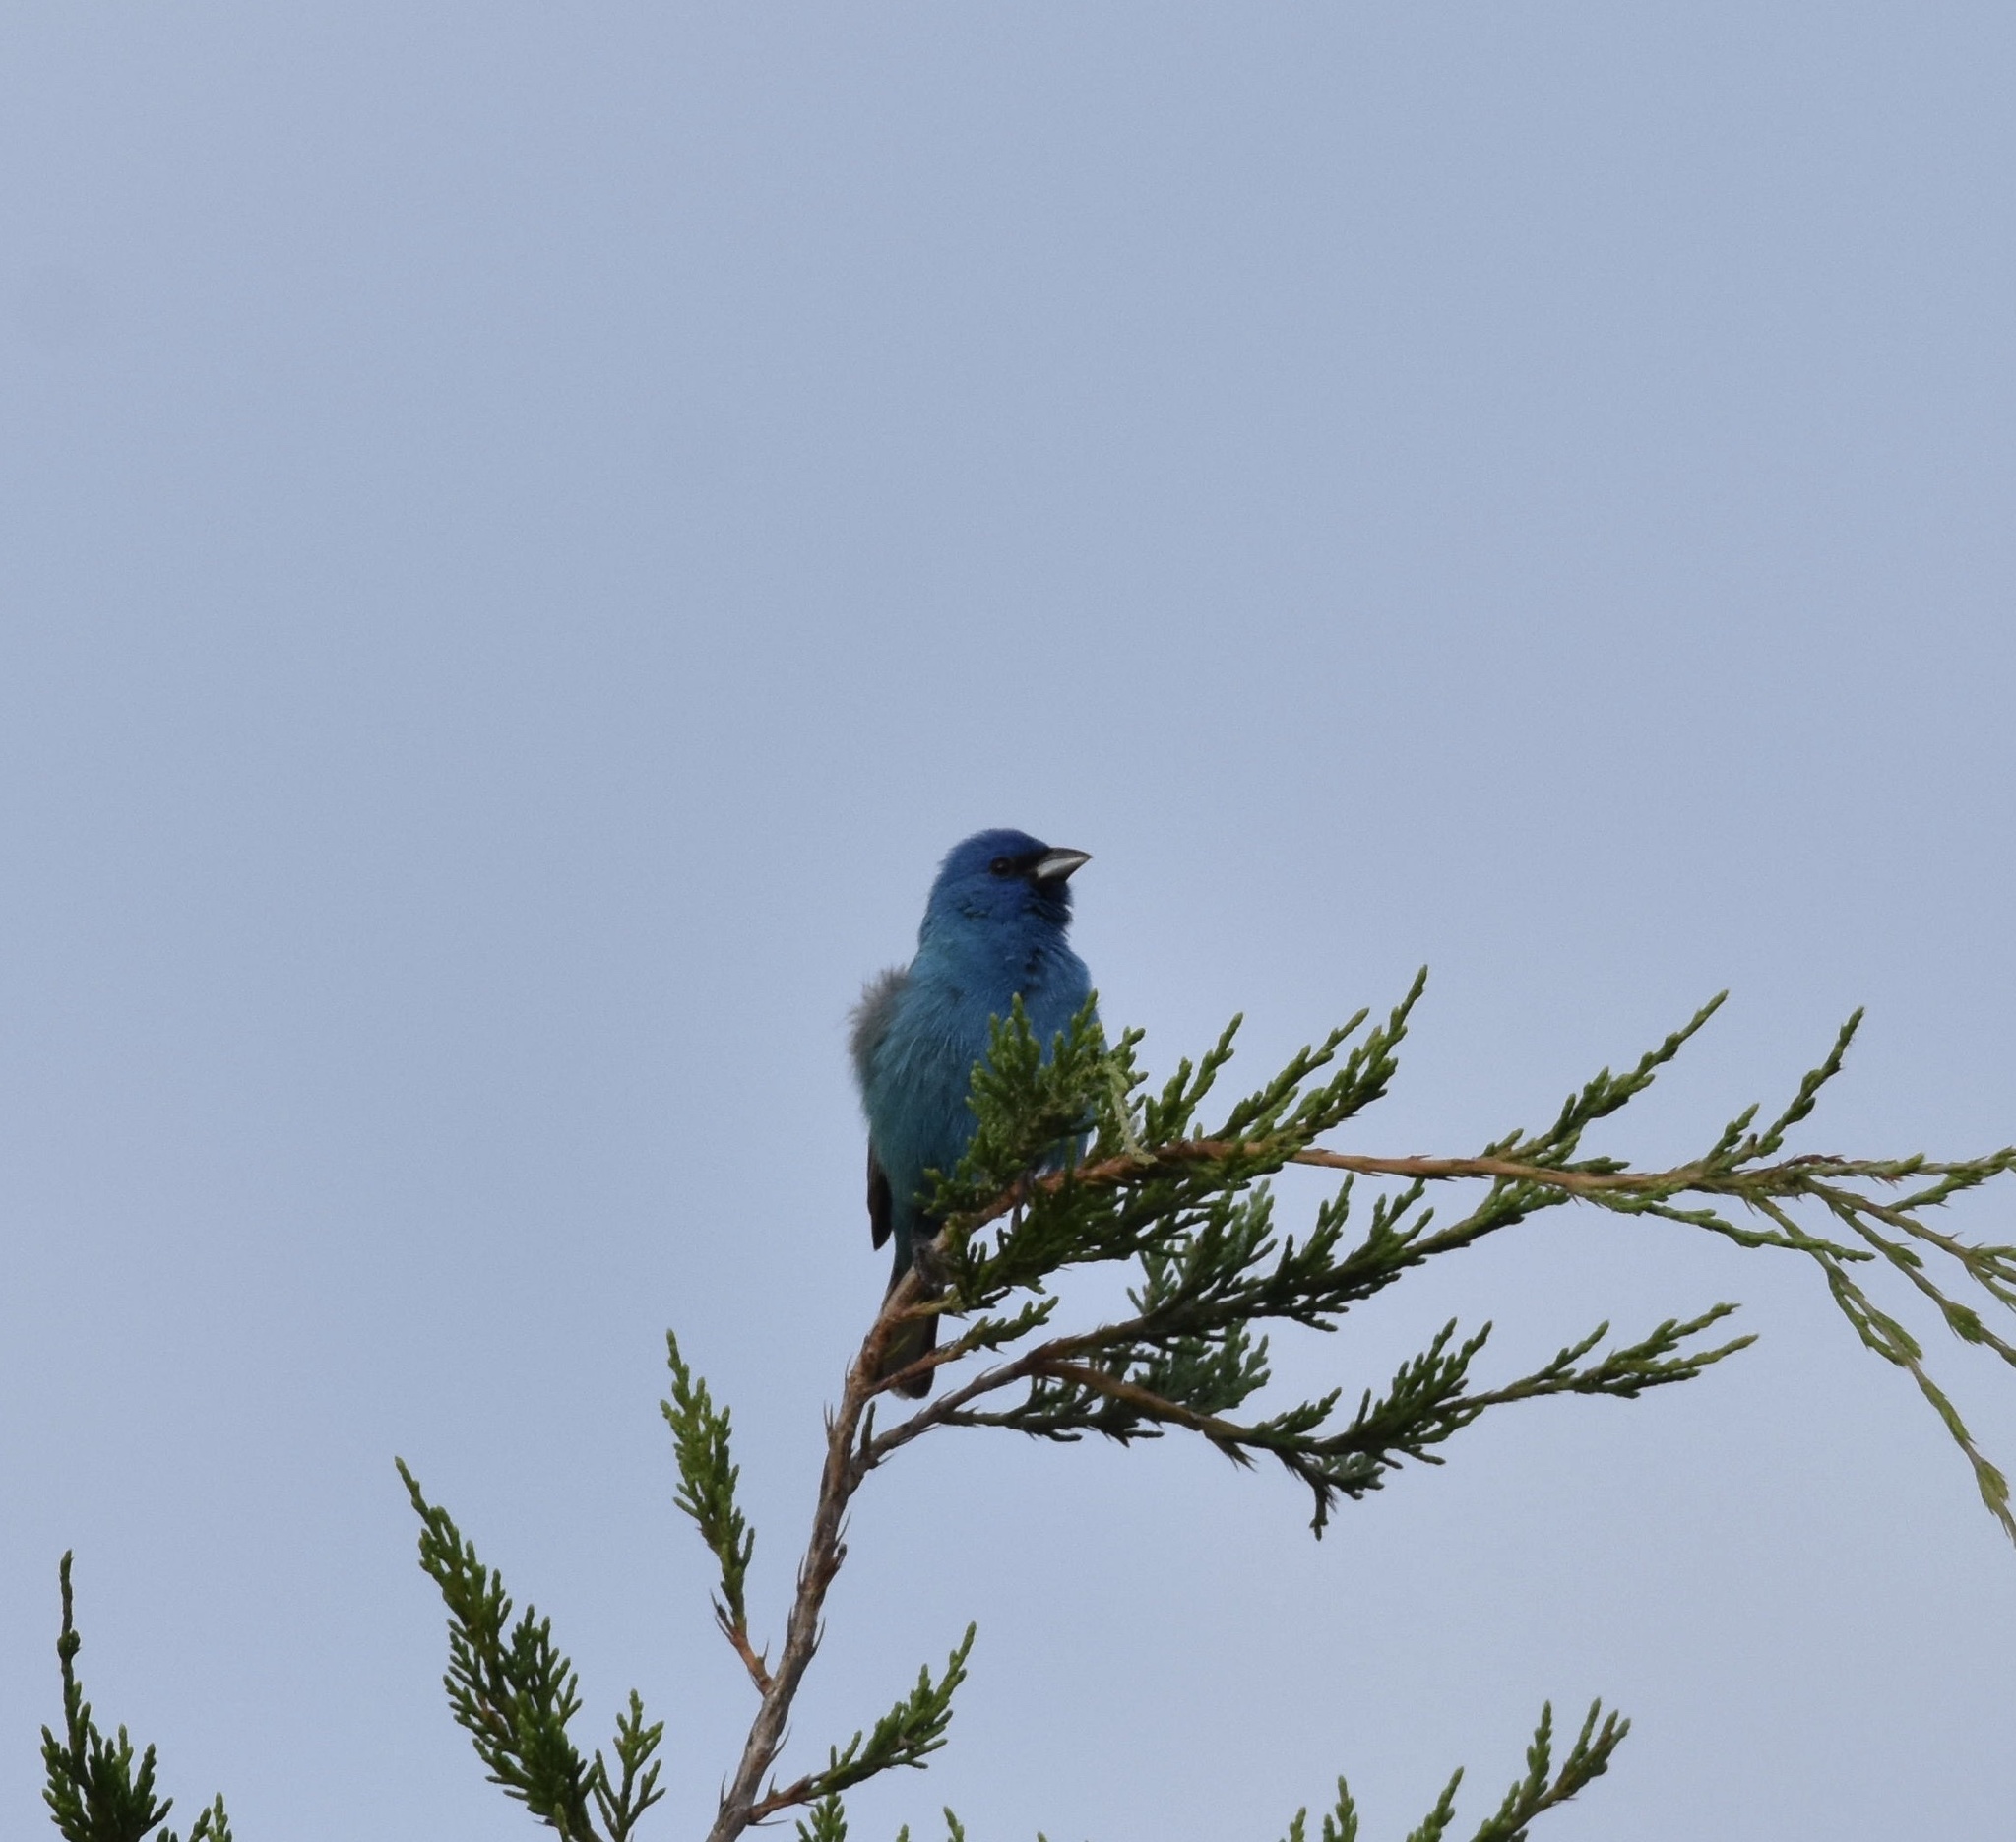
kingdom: Animalia
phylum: Chordata
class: Aves
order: Passeriformes
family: Cardinalidae
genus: Passerina
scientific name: Passerina cyanea
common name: Indigo bunting
